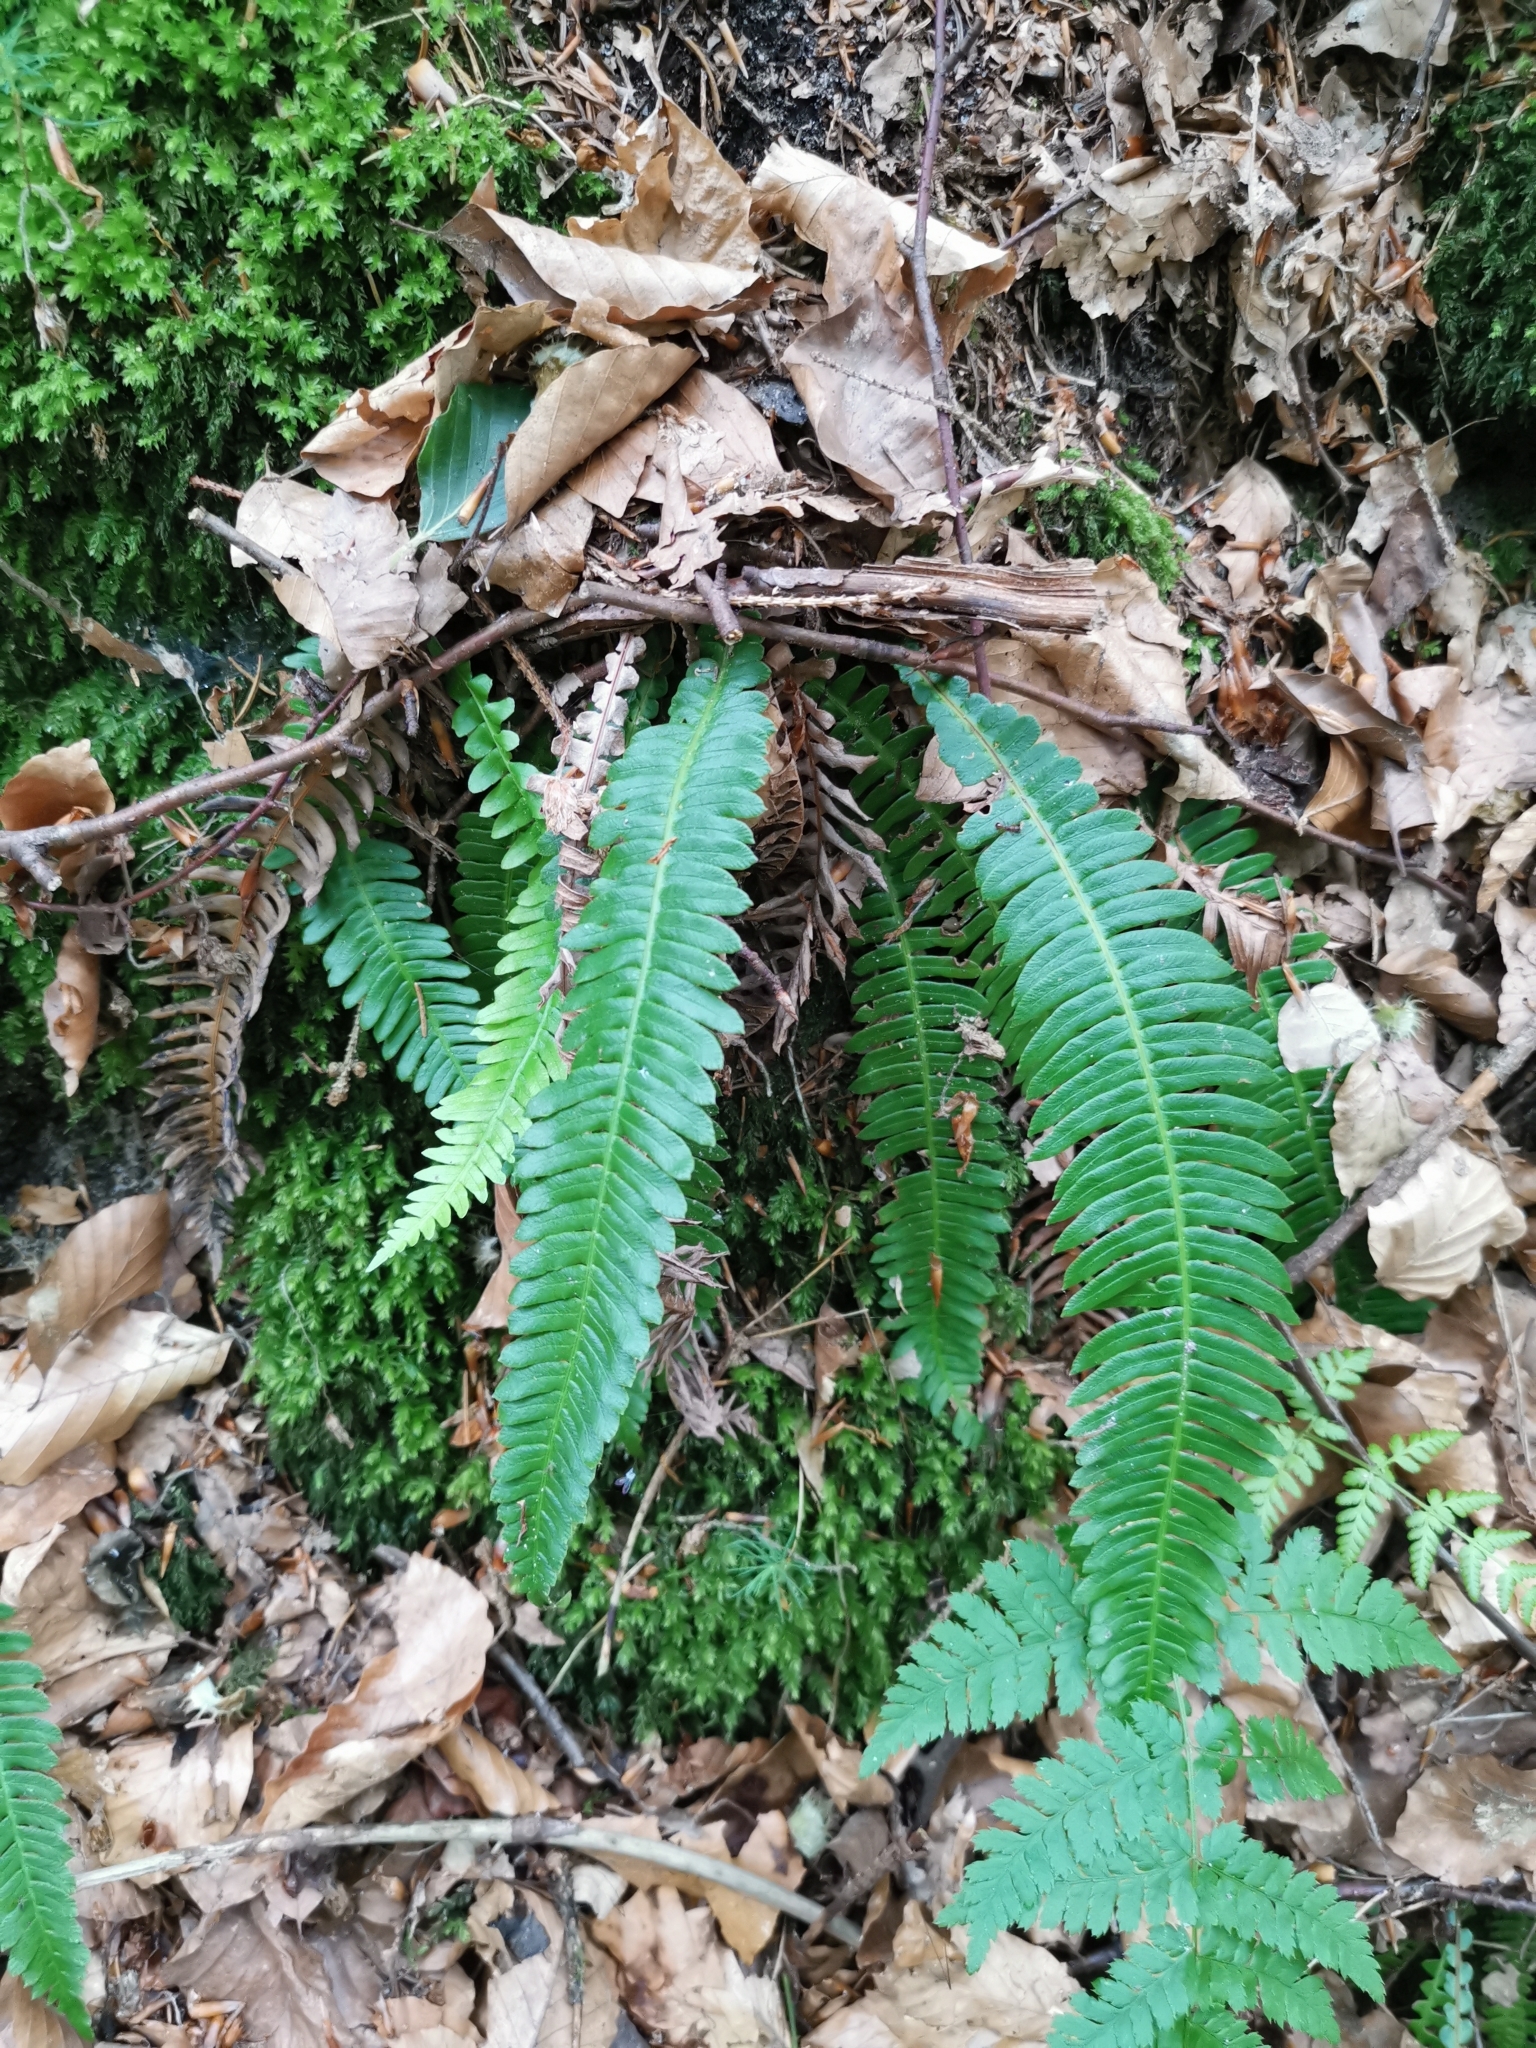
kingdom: Plantae
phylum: Tracheophyta
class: Polypodiopsida
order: Polypodiales
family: Blechnaceae
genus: Struthiopteris
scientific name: Struthiopteris spicant
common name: Deer fern
